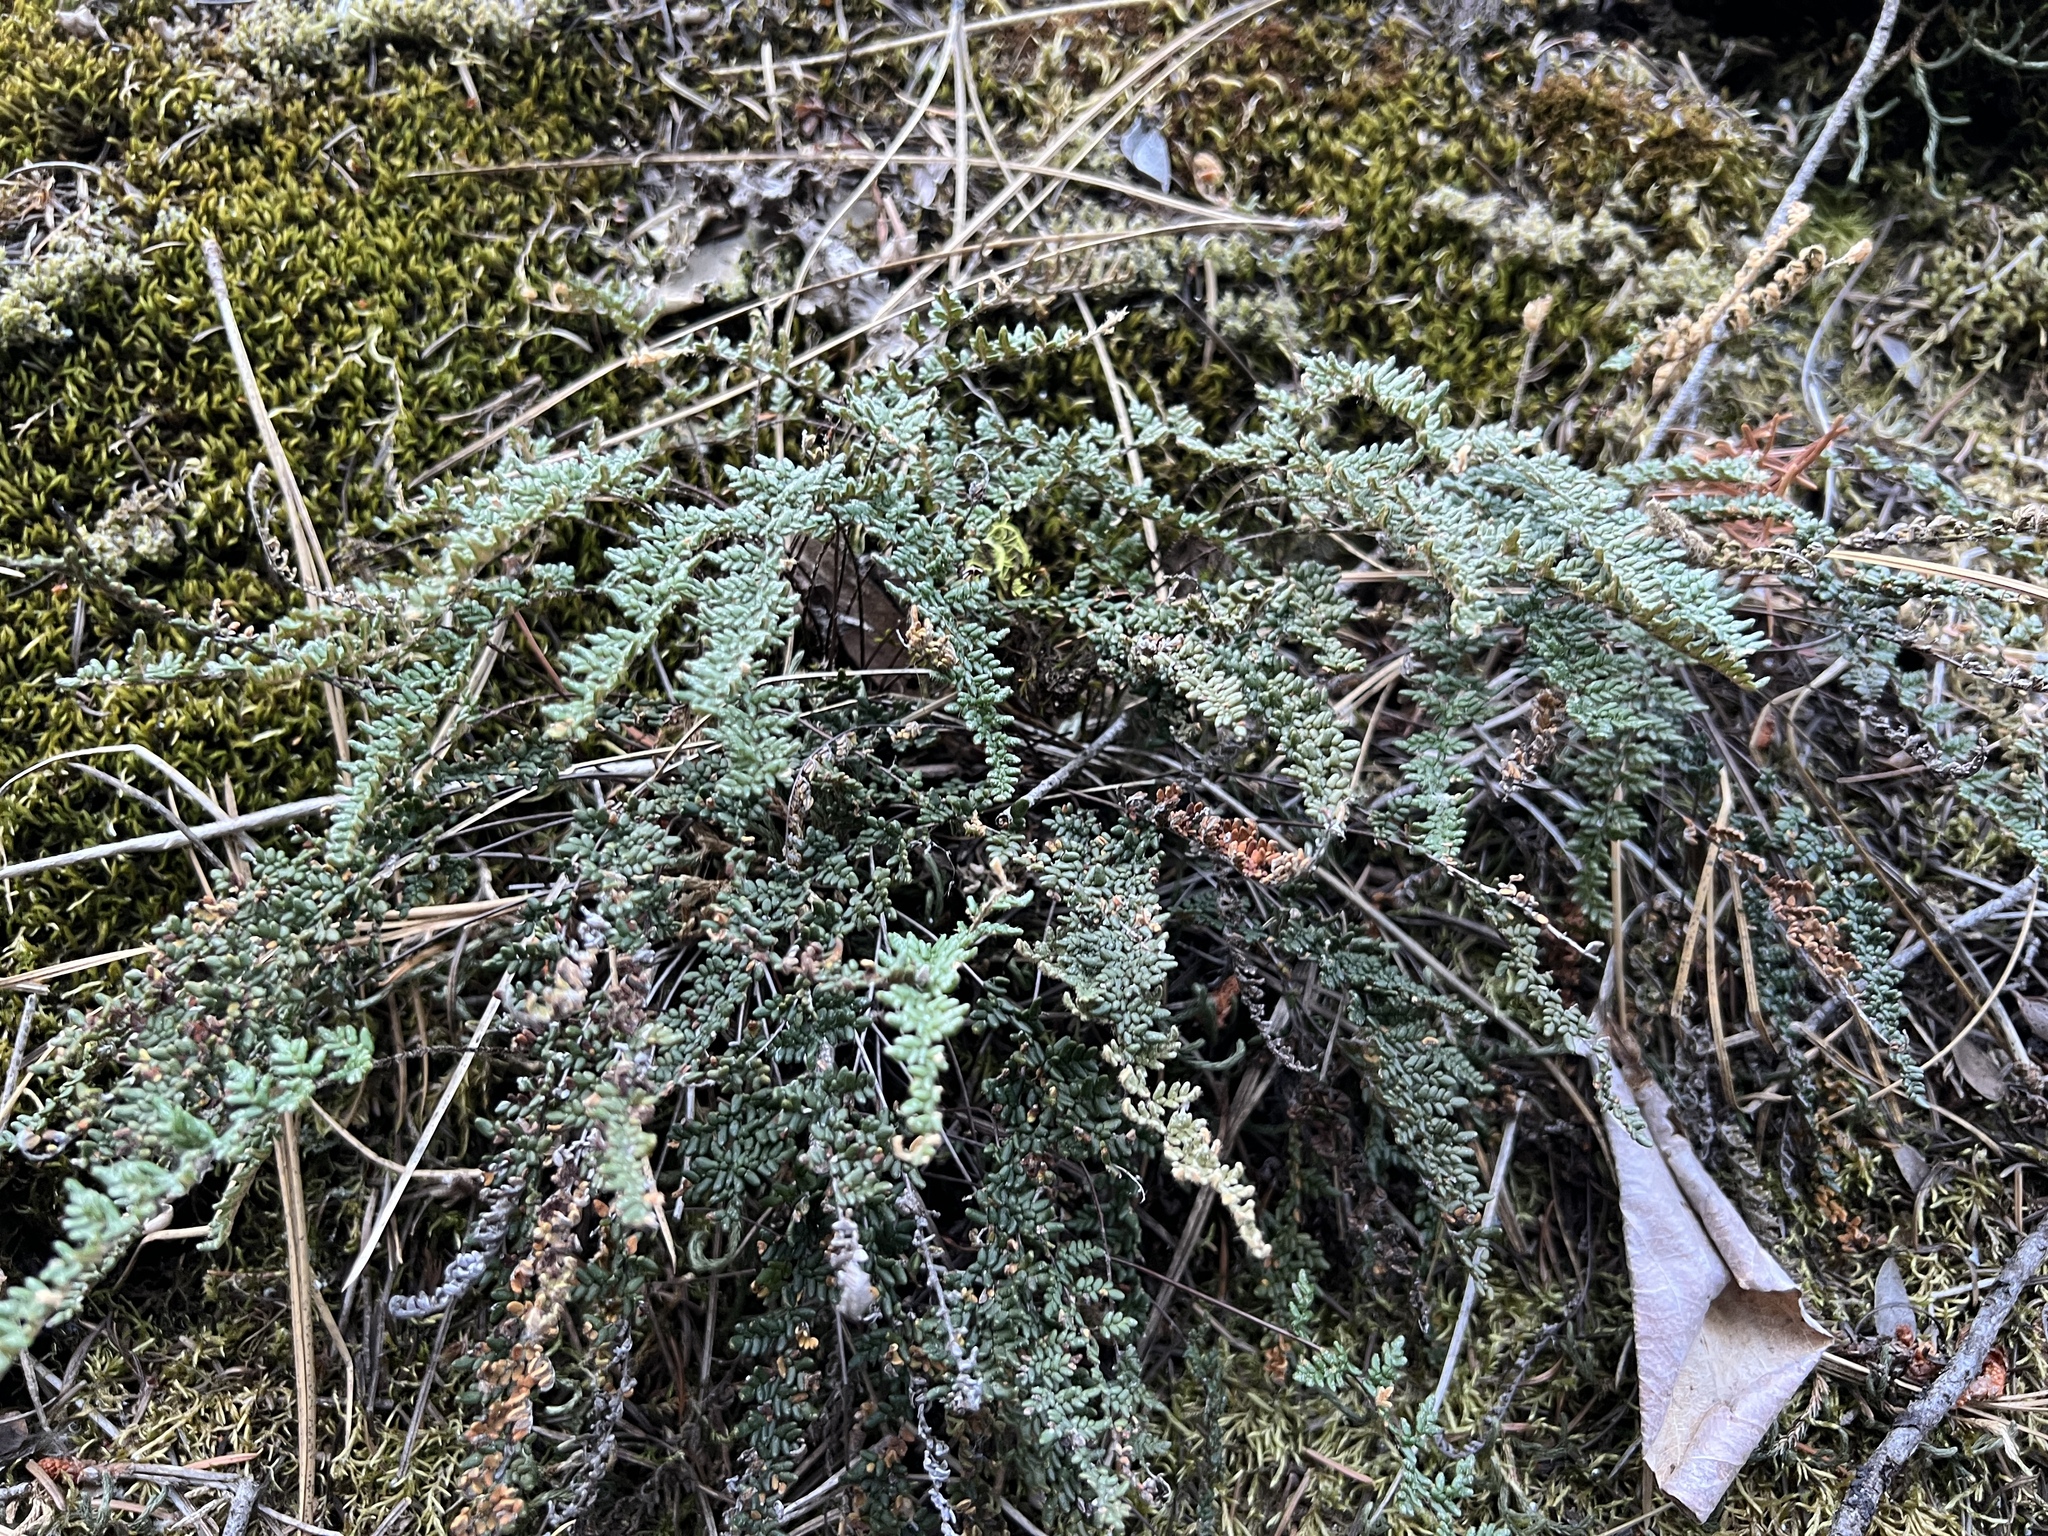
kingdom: Plantae
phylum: Tracheophyta
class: Polypodiopsida
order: Polypodiales
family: Pteridaceae
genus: Myriopteris
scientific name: Myriopteris gracillima
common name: Lace fern
